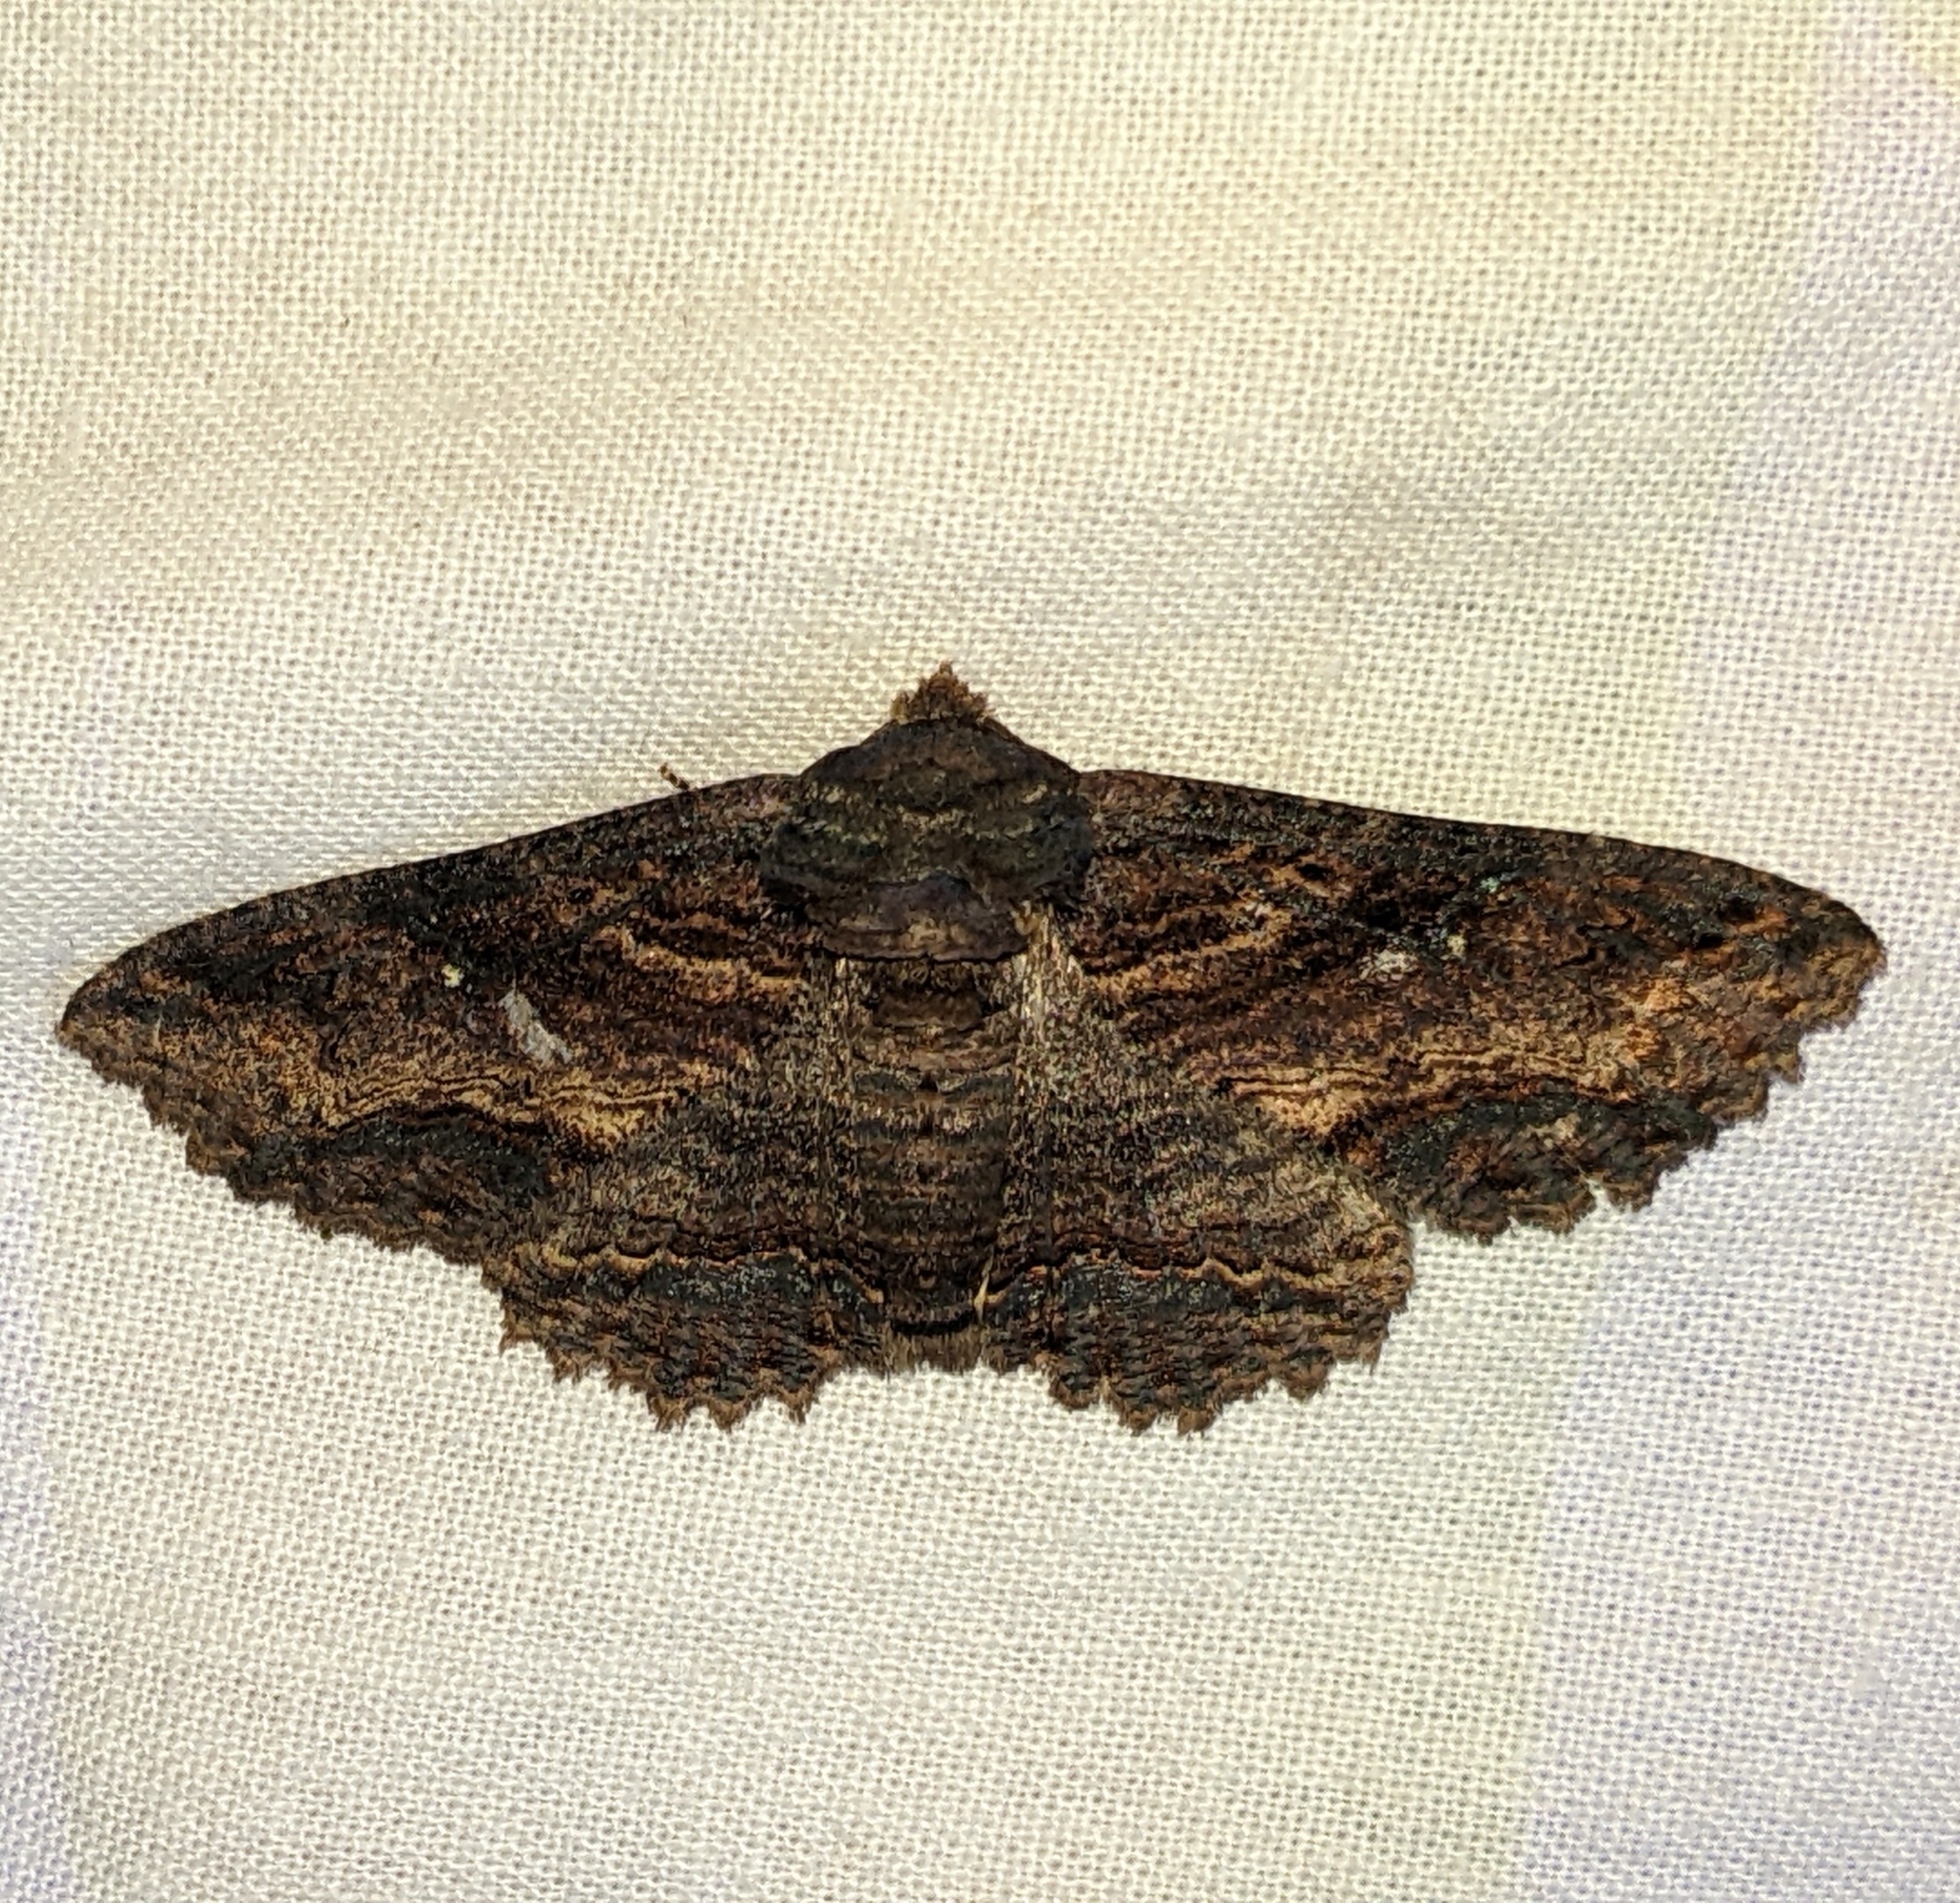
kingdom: Animalia
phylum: Arthropoda
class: Insecta
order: Lepidoptera
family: Erebidae
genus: Zale
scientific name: Zale lunata
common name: Lunate zale moth
